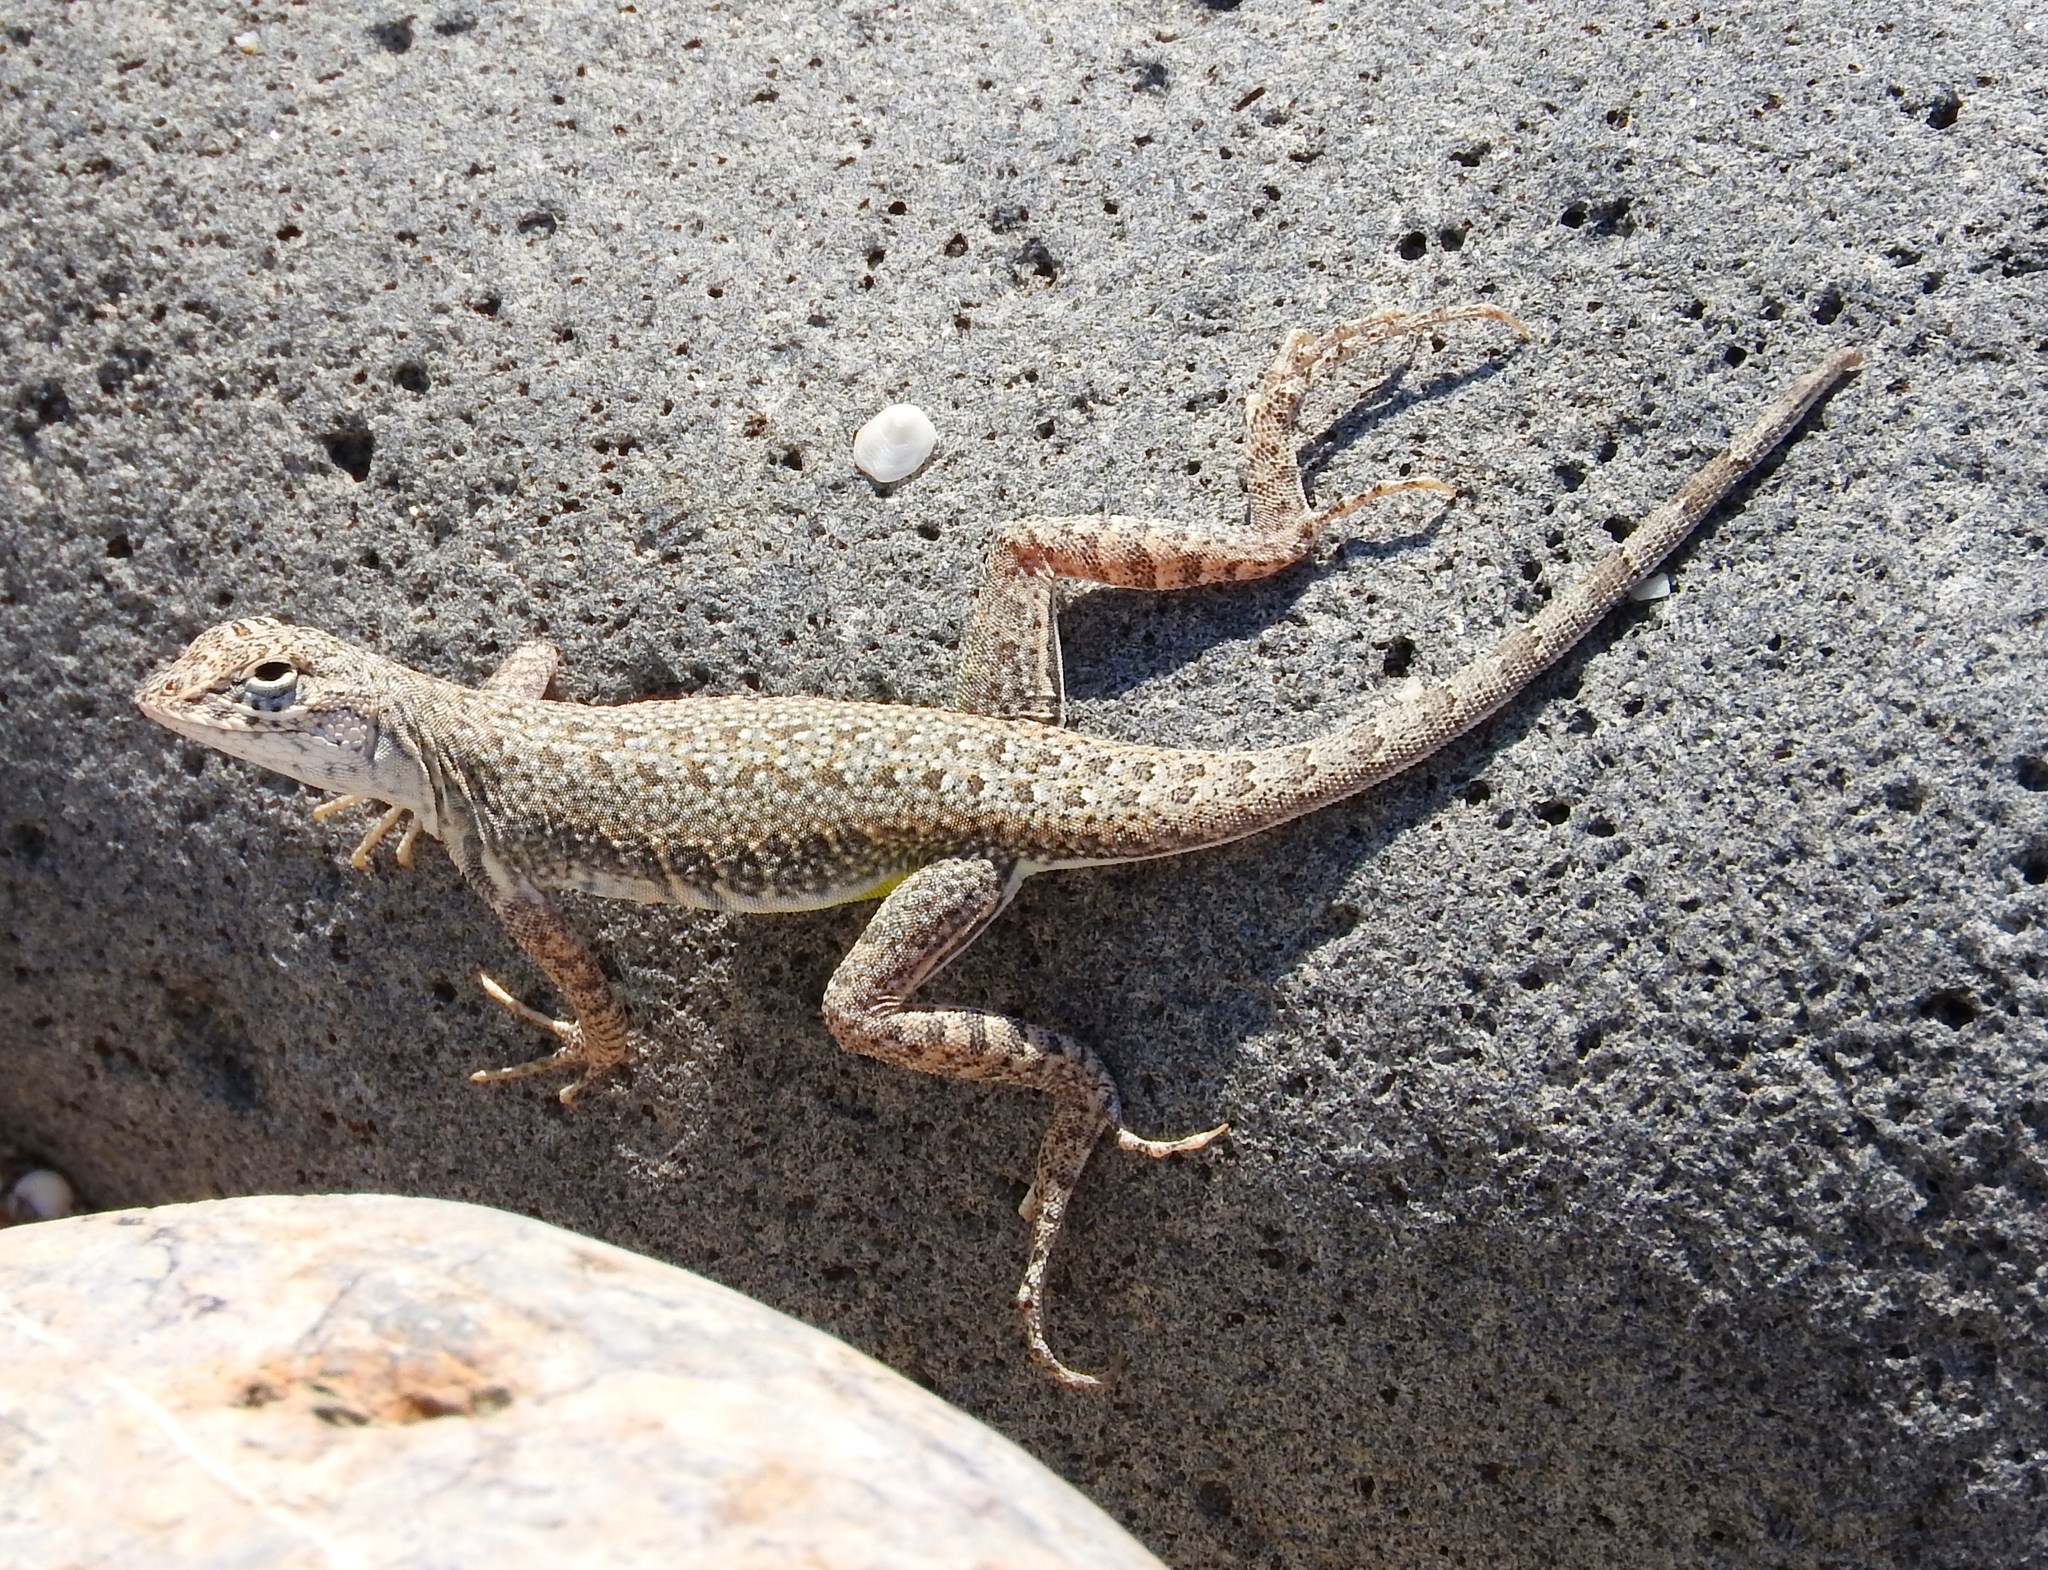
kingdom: Animalia
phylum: Chordata
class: Squamata
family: Phrynosomatidae
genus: Callisaurus
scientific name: Callisaurus draconoides
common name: Zebra-tailed lizard
